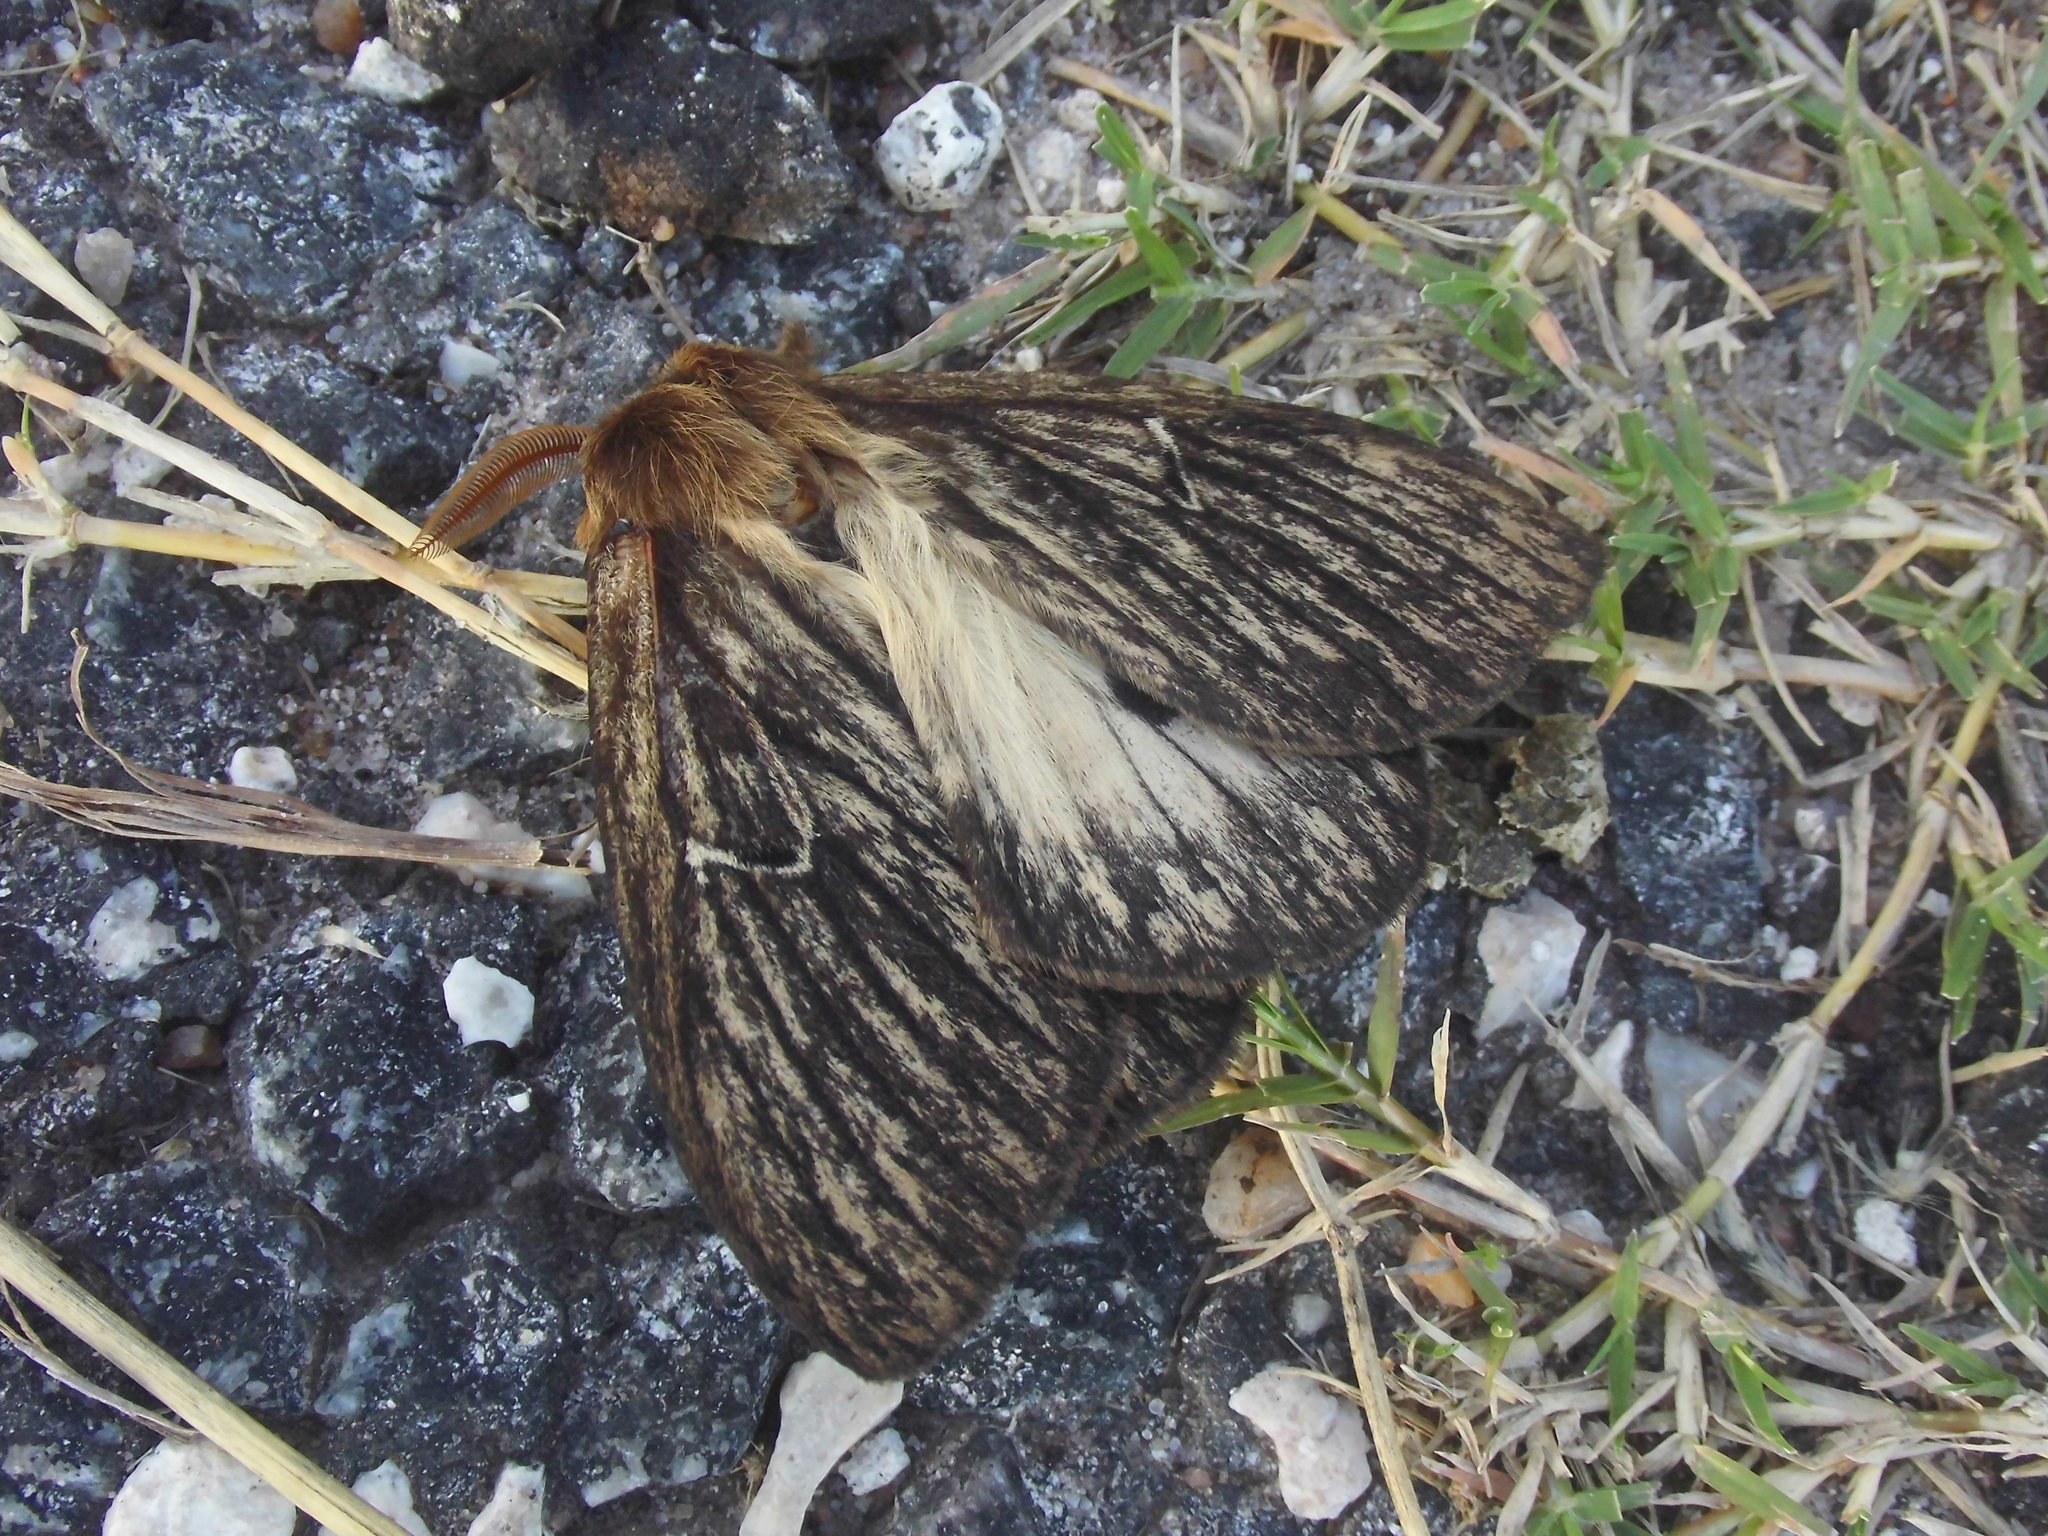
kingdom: Animalia
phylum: Arthropoda
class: Insecta
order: Lepidoptera
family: Saturniidae
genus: Eudyaria
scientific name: Eudyaria zeta
